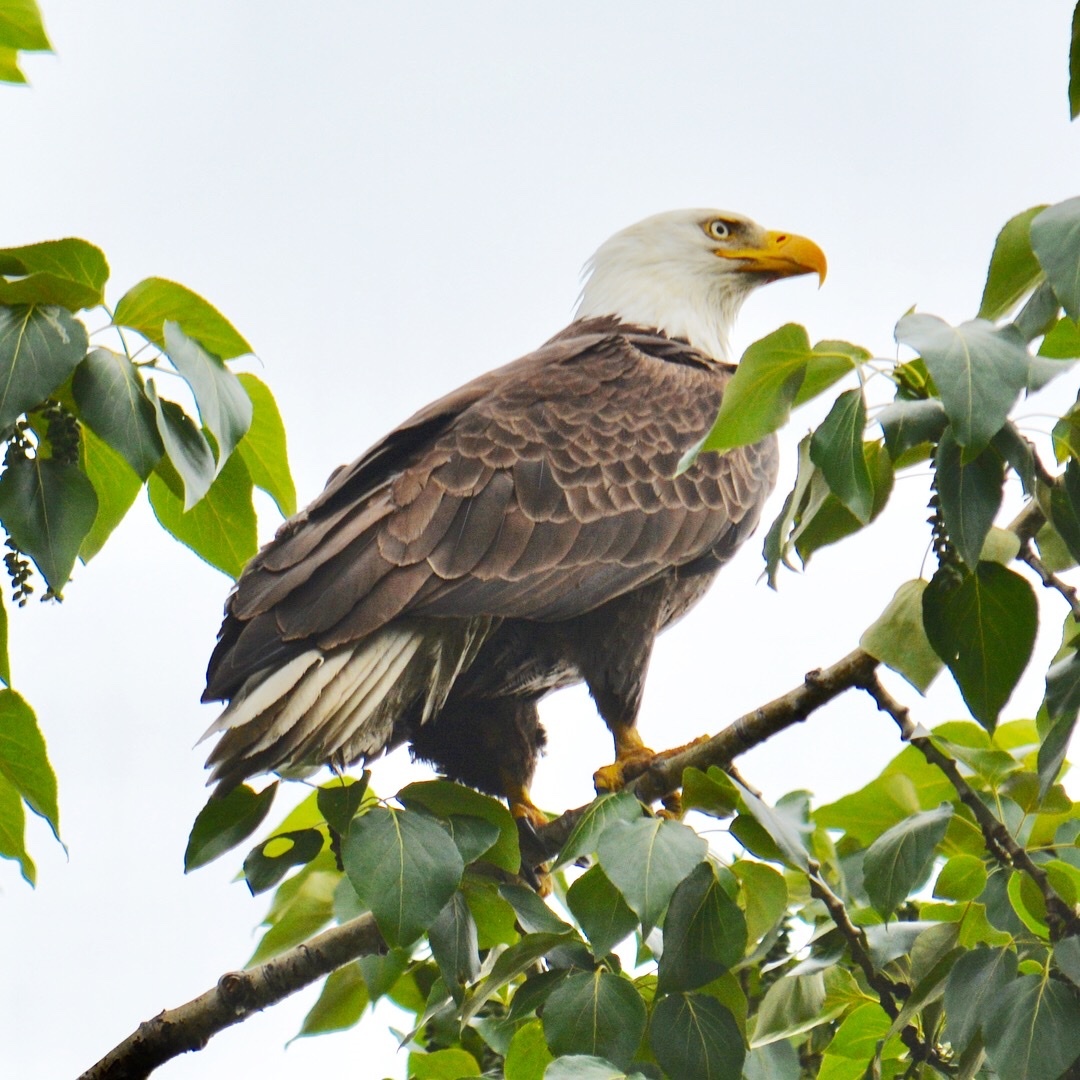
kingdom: Animalia
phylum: Chordata
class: Aves
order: Accipitriformes
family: Accipitridae
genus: Haliaeetus
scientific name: Haliaeetus leucocephalus
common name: Bald eagle
